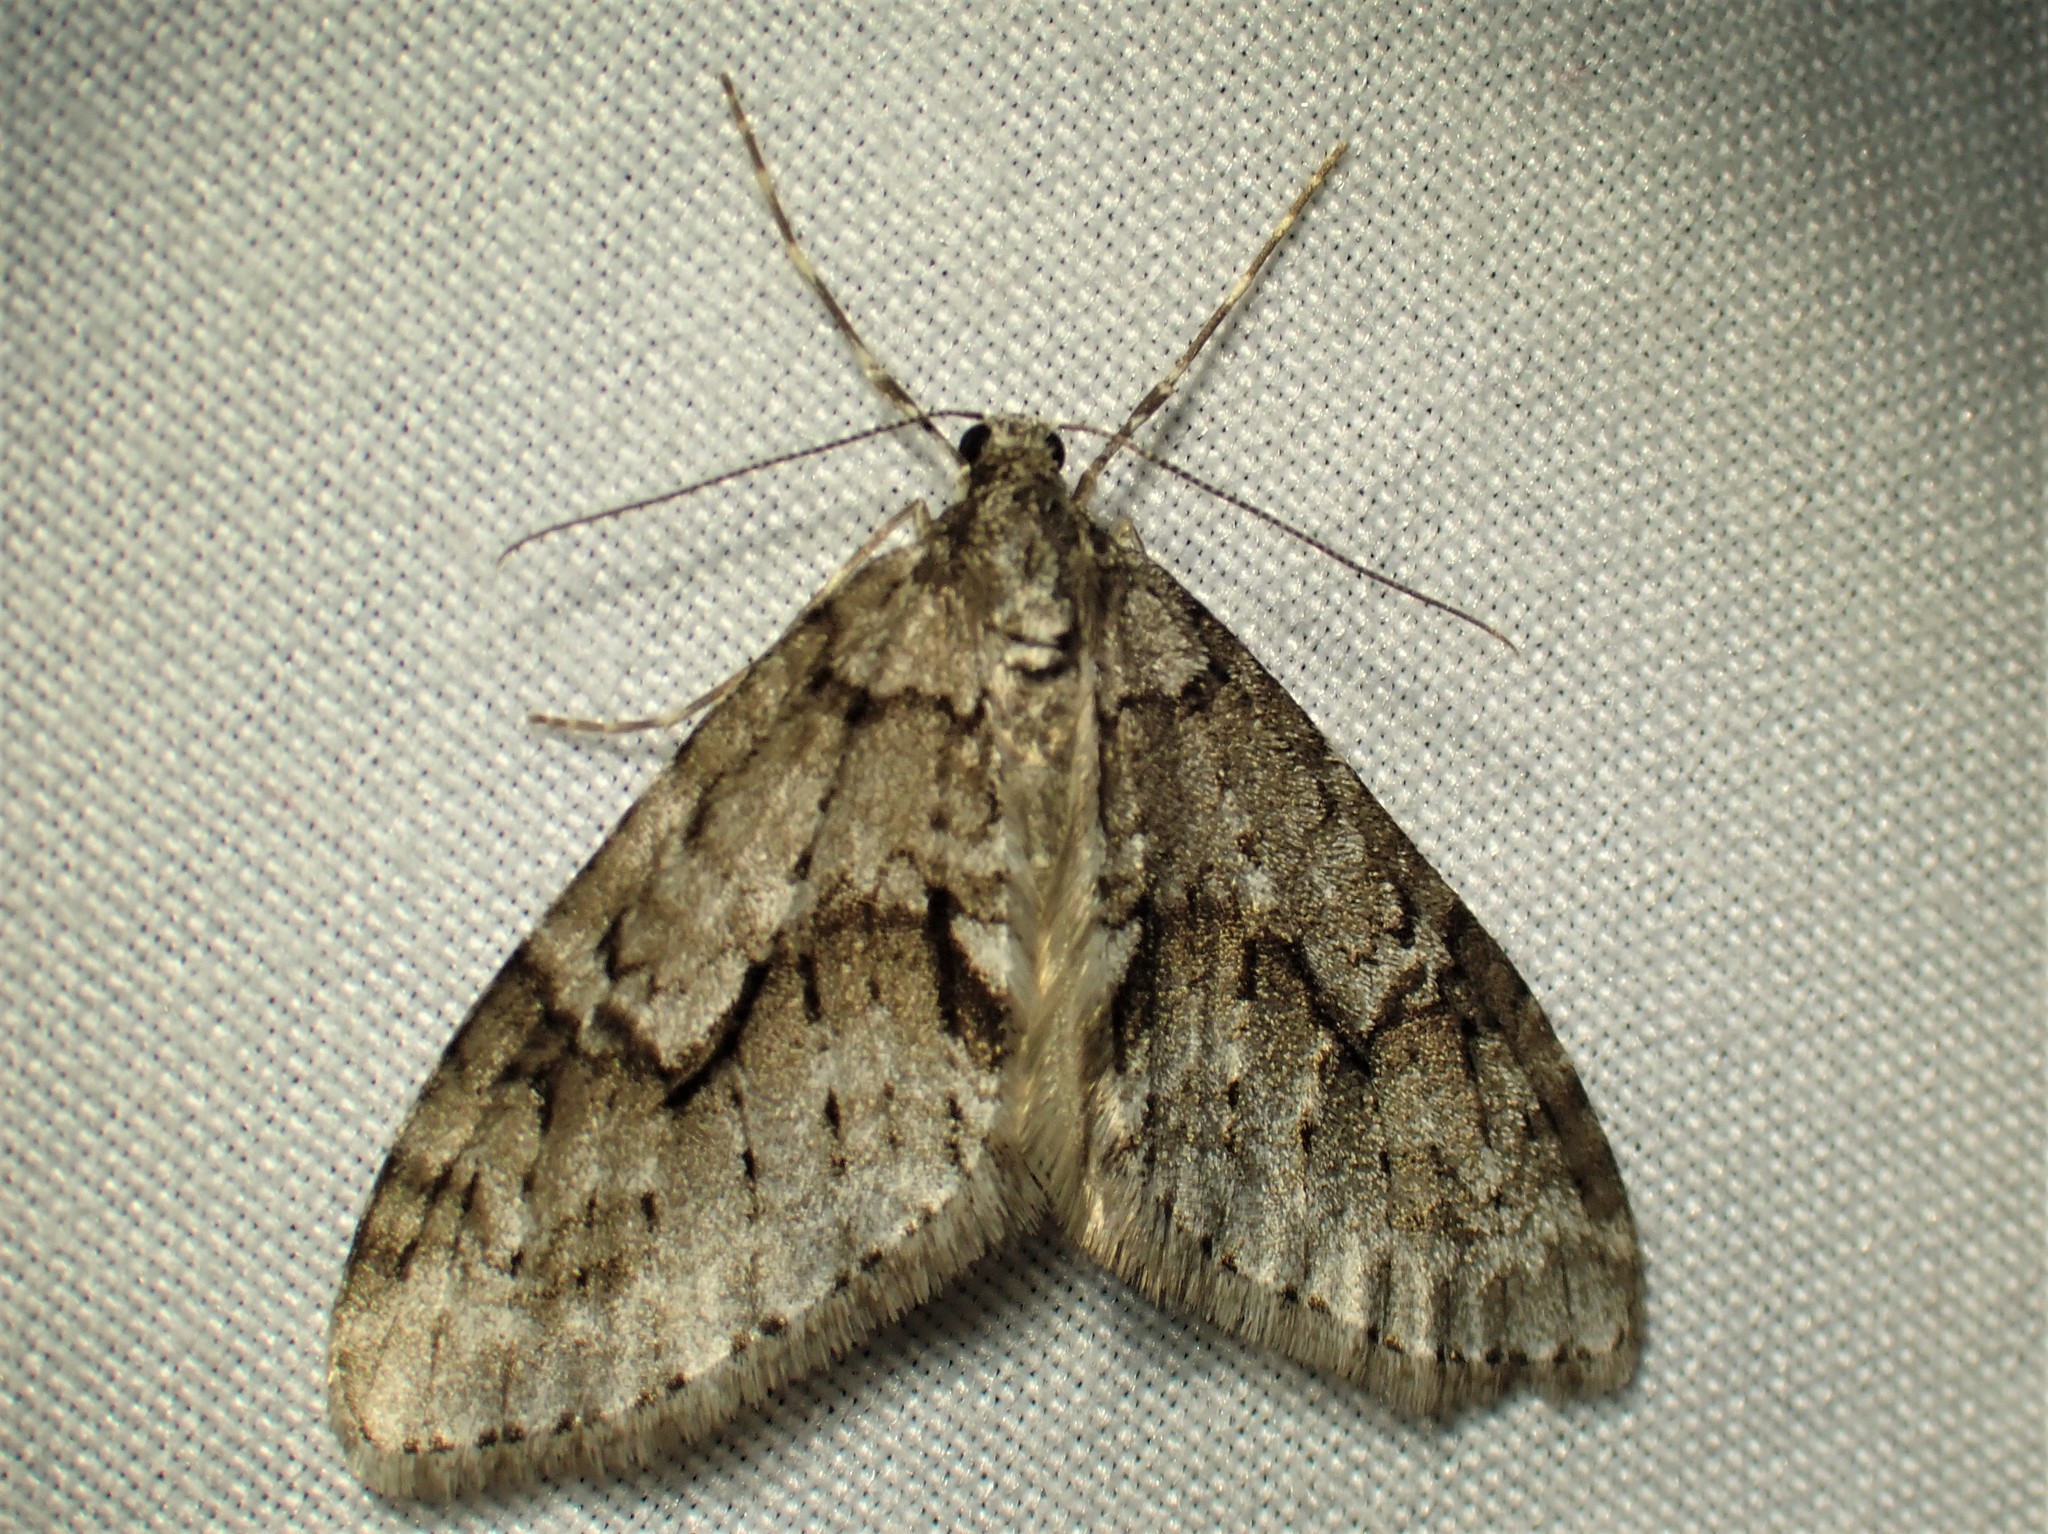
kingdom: Animalia
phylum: Arthropoda
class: Insecta
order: Lepidoptera
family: Geometridae
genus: Cladara
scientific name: Cladara limitaria
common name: Mottled gray carpet
